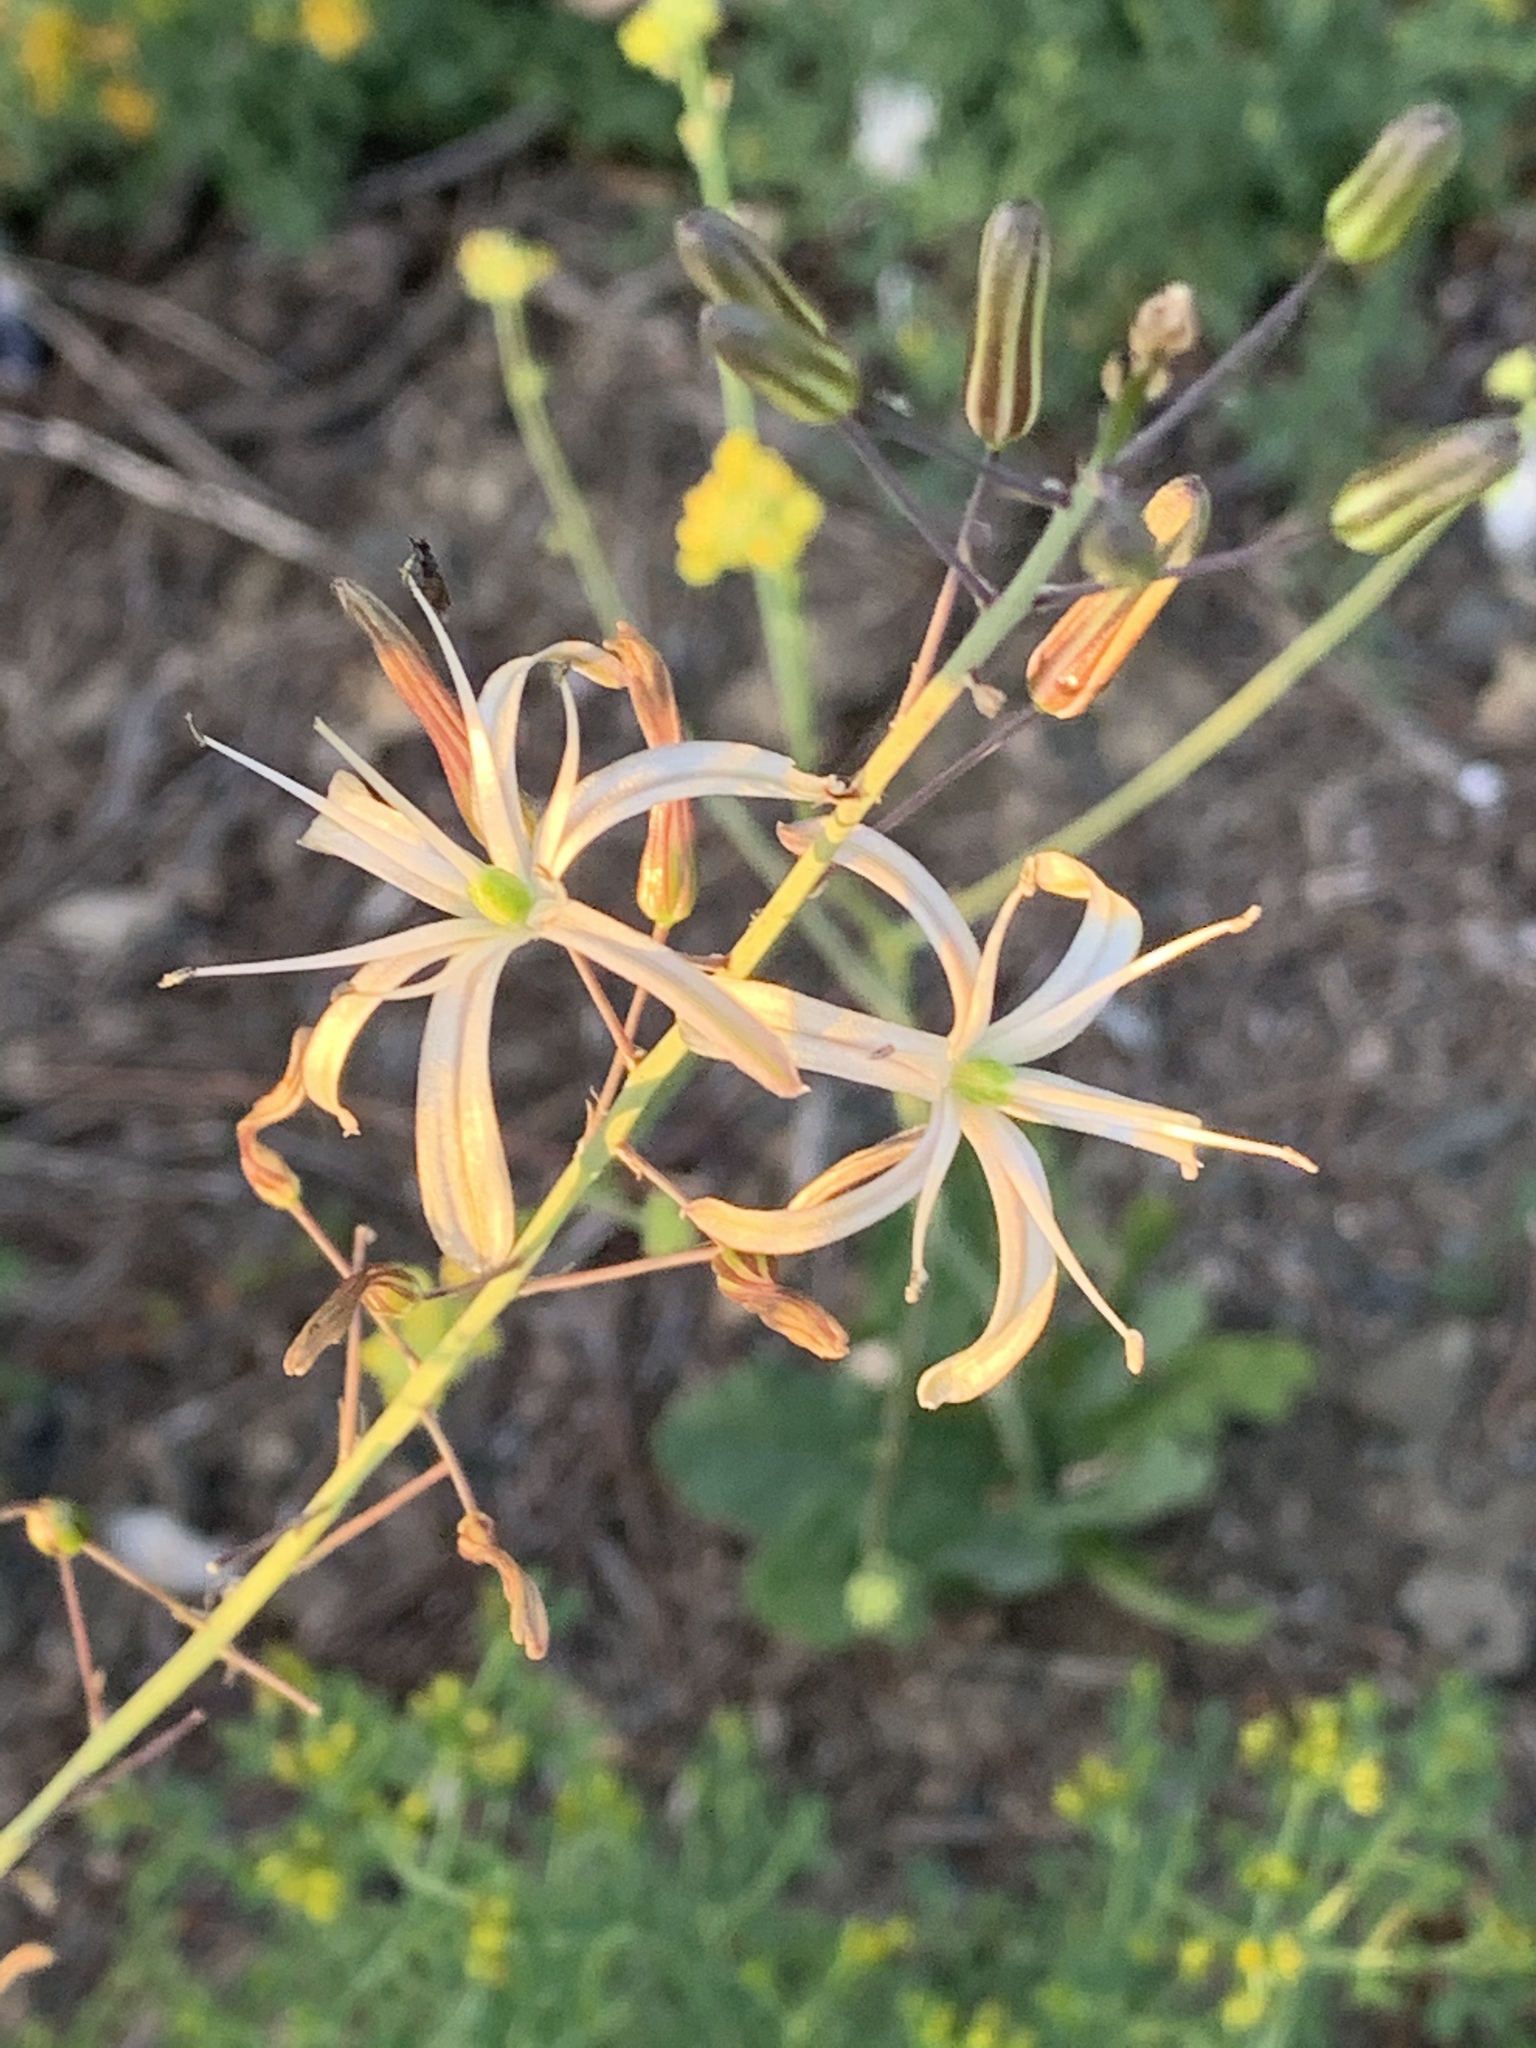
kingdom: Plantae
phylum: Tracheophyta
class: Liliopsida
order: Asparagales
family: Asparagaceae
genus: Chlorogalum
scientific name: Chlorogalum pomeridianum
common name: Amole
